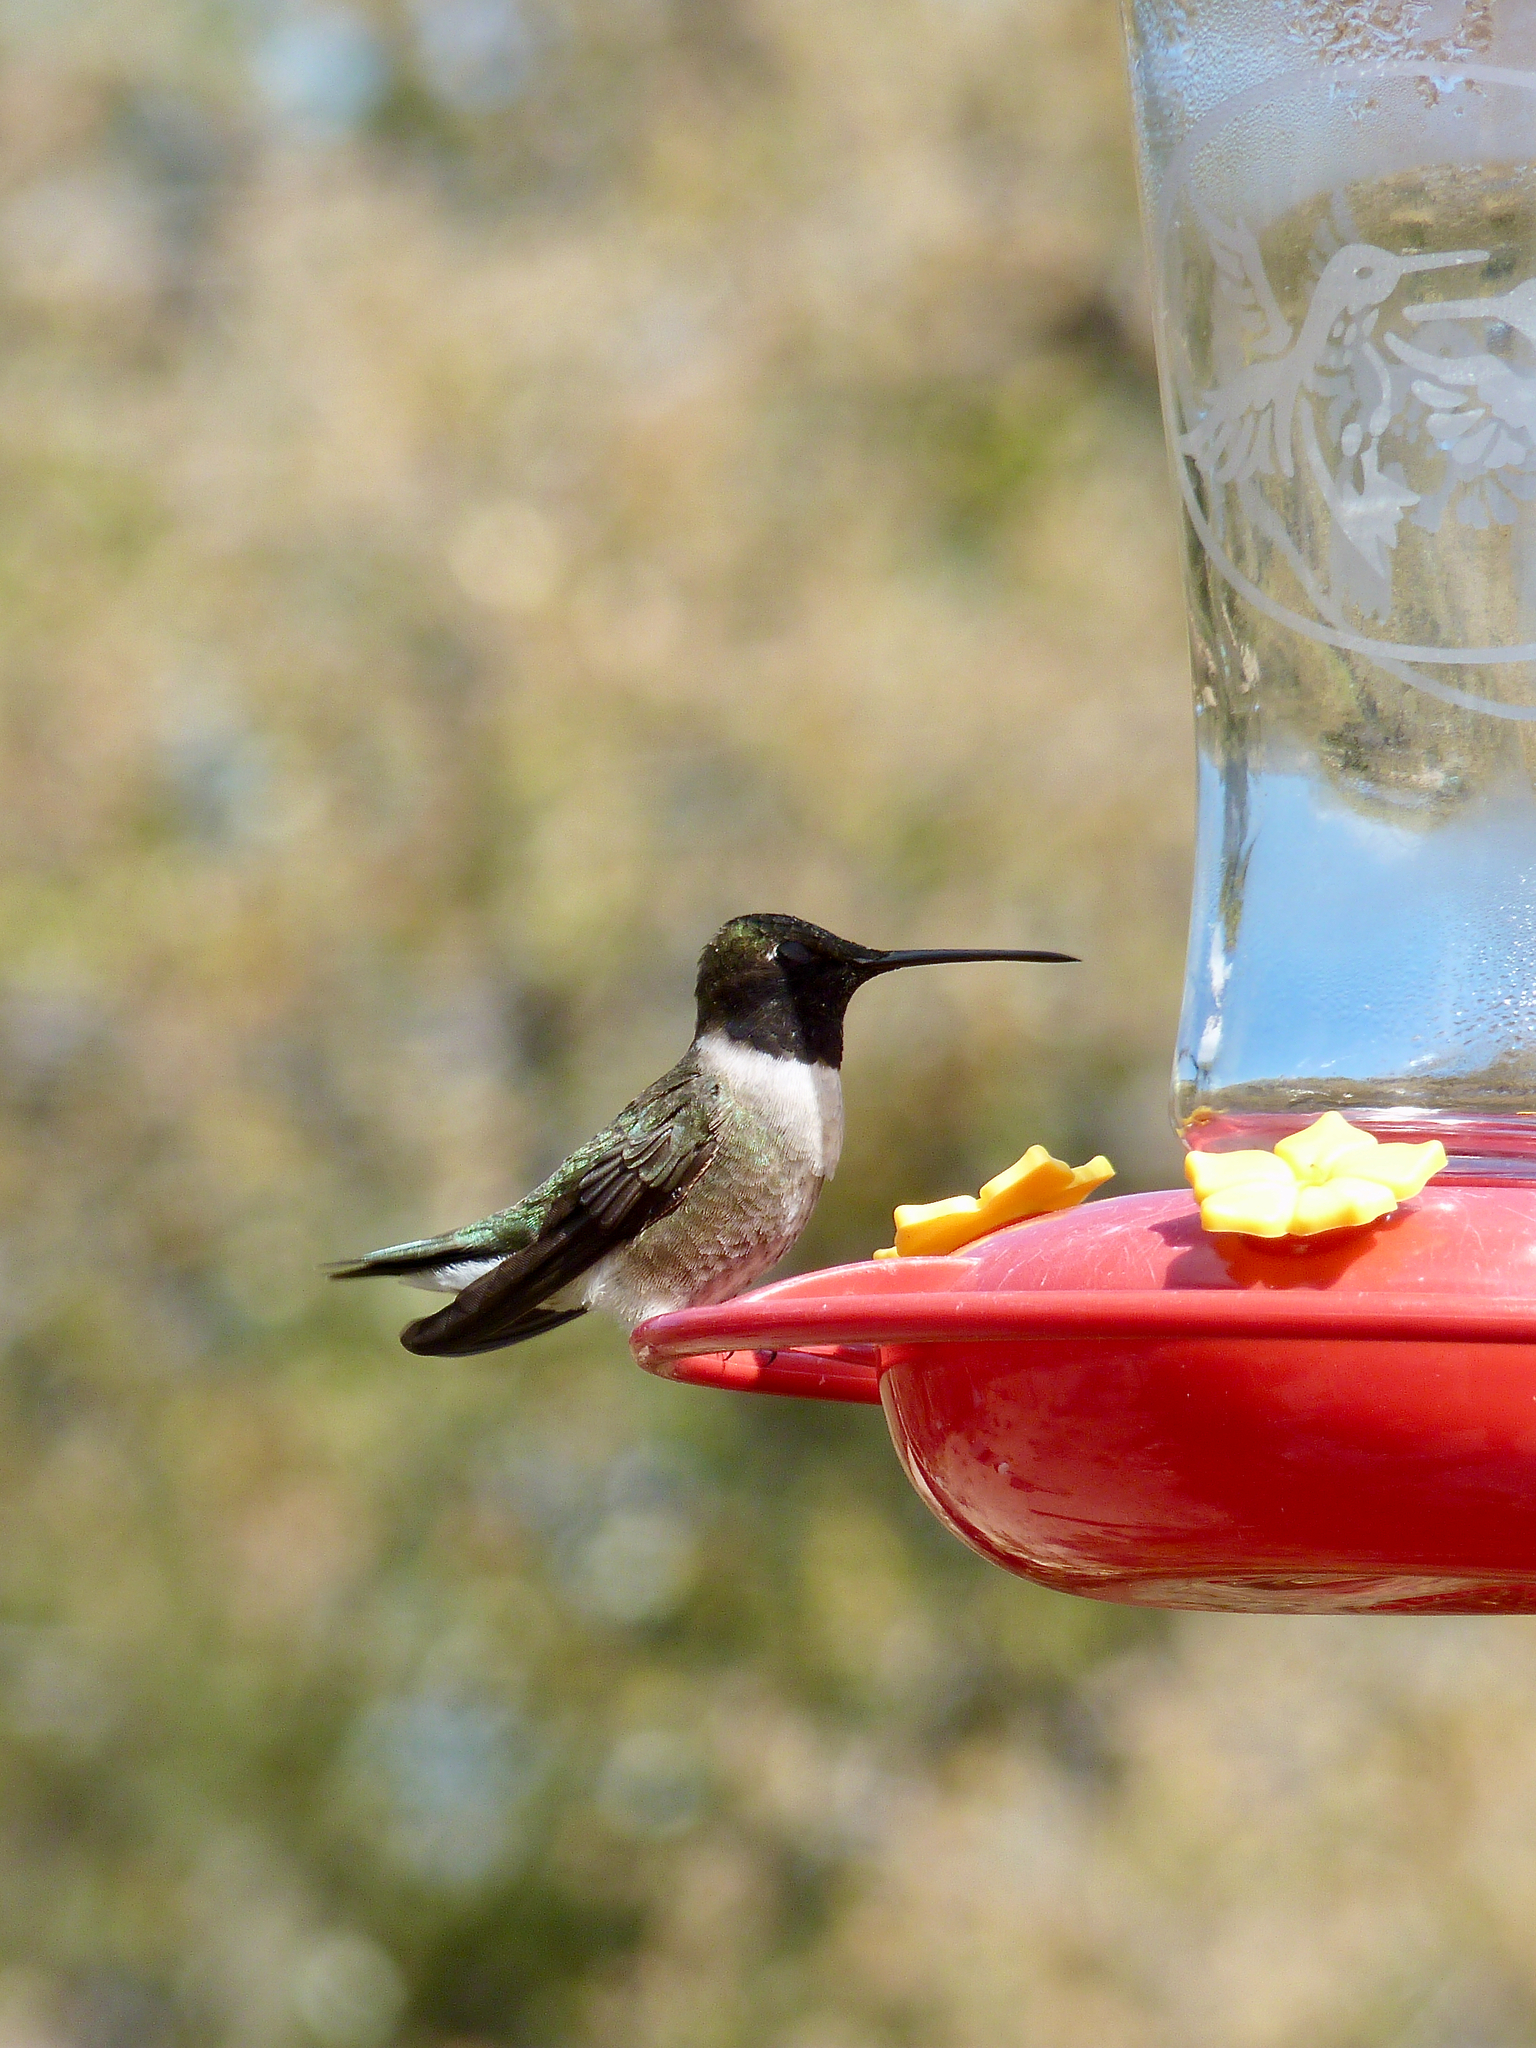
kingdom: Animalia
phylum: Chordata
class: Aves
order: Apodiformes
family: Trochilidae
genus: Archilochus
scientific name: Archilochus alexandri
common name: Black-chinned hummingbird
